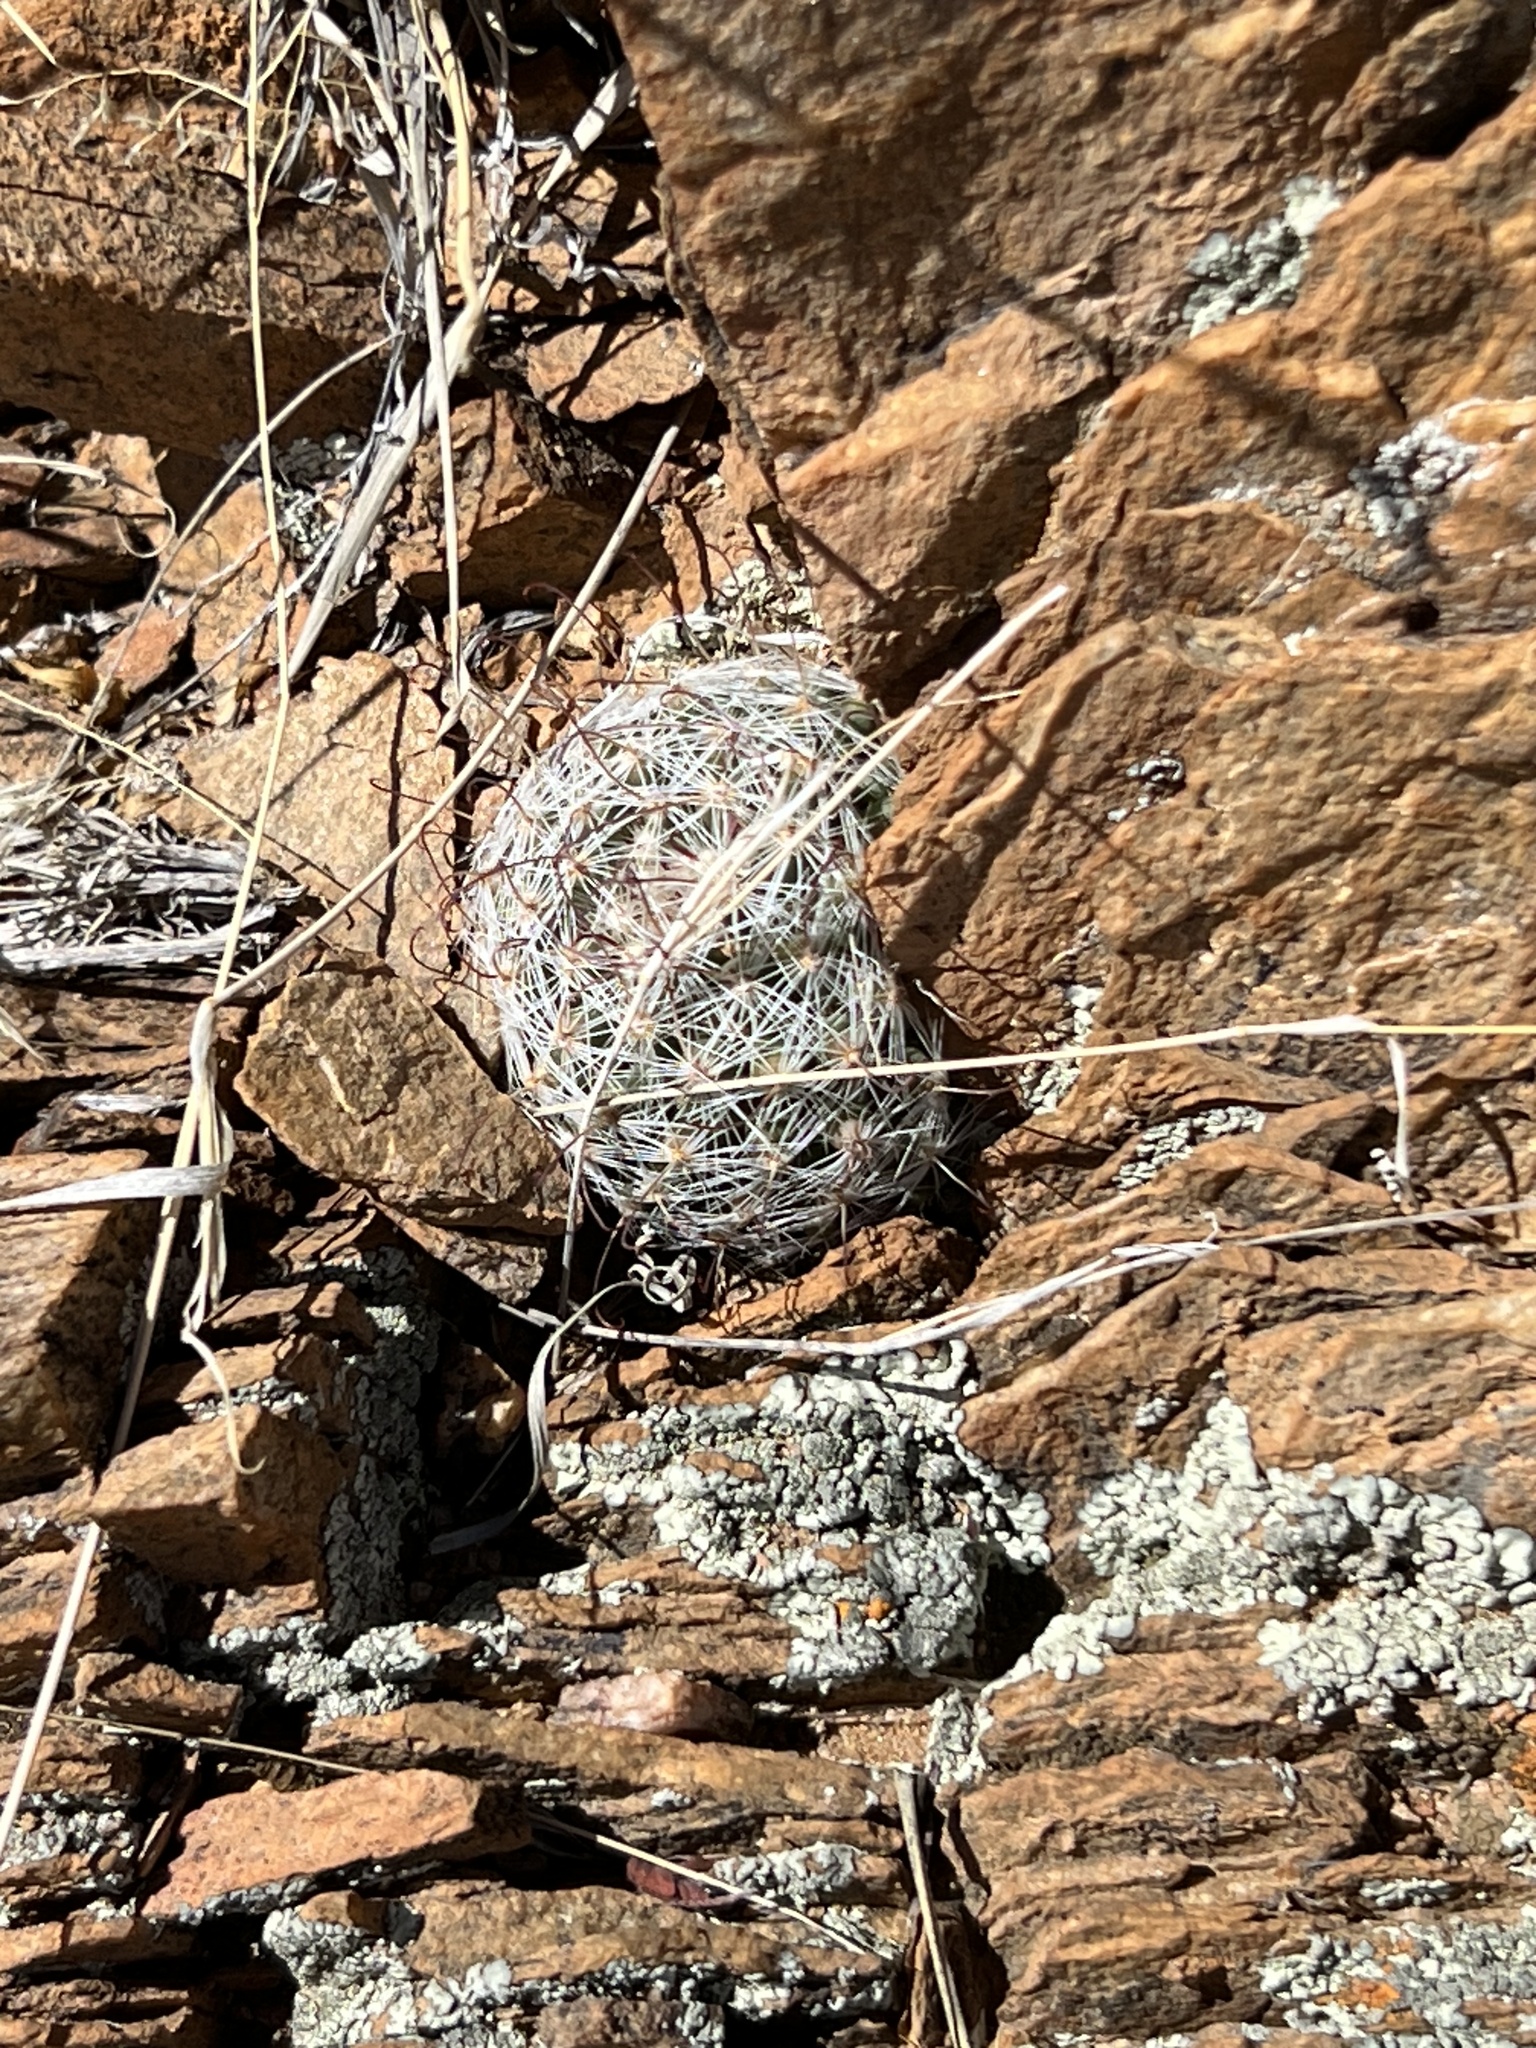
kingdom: Plantae
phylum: Tracheophyta
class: Magnoliopsida
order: Caryophyllales
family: Cactaceae
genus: Cochemiea
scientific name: Cochemiea grahamii
